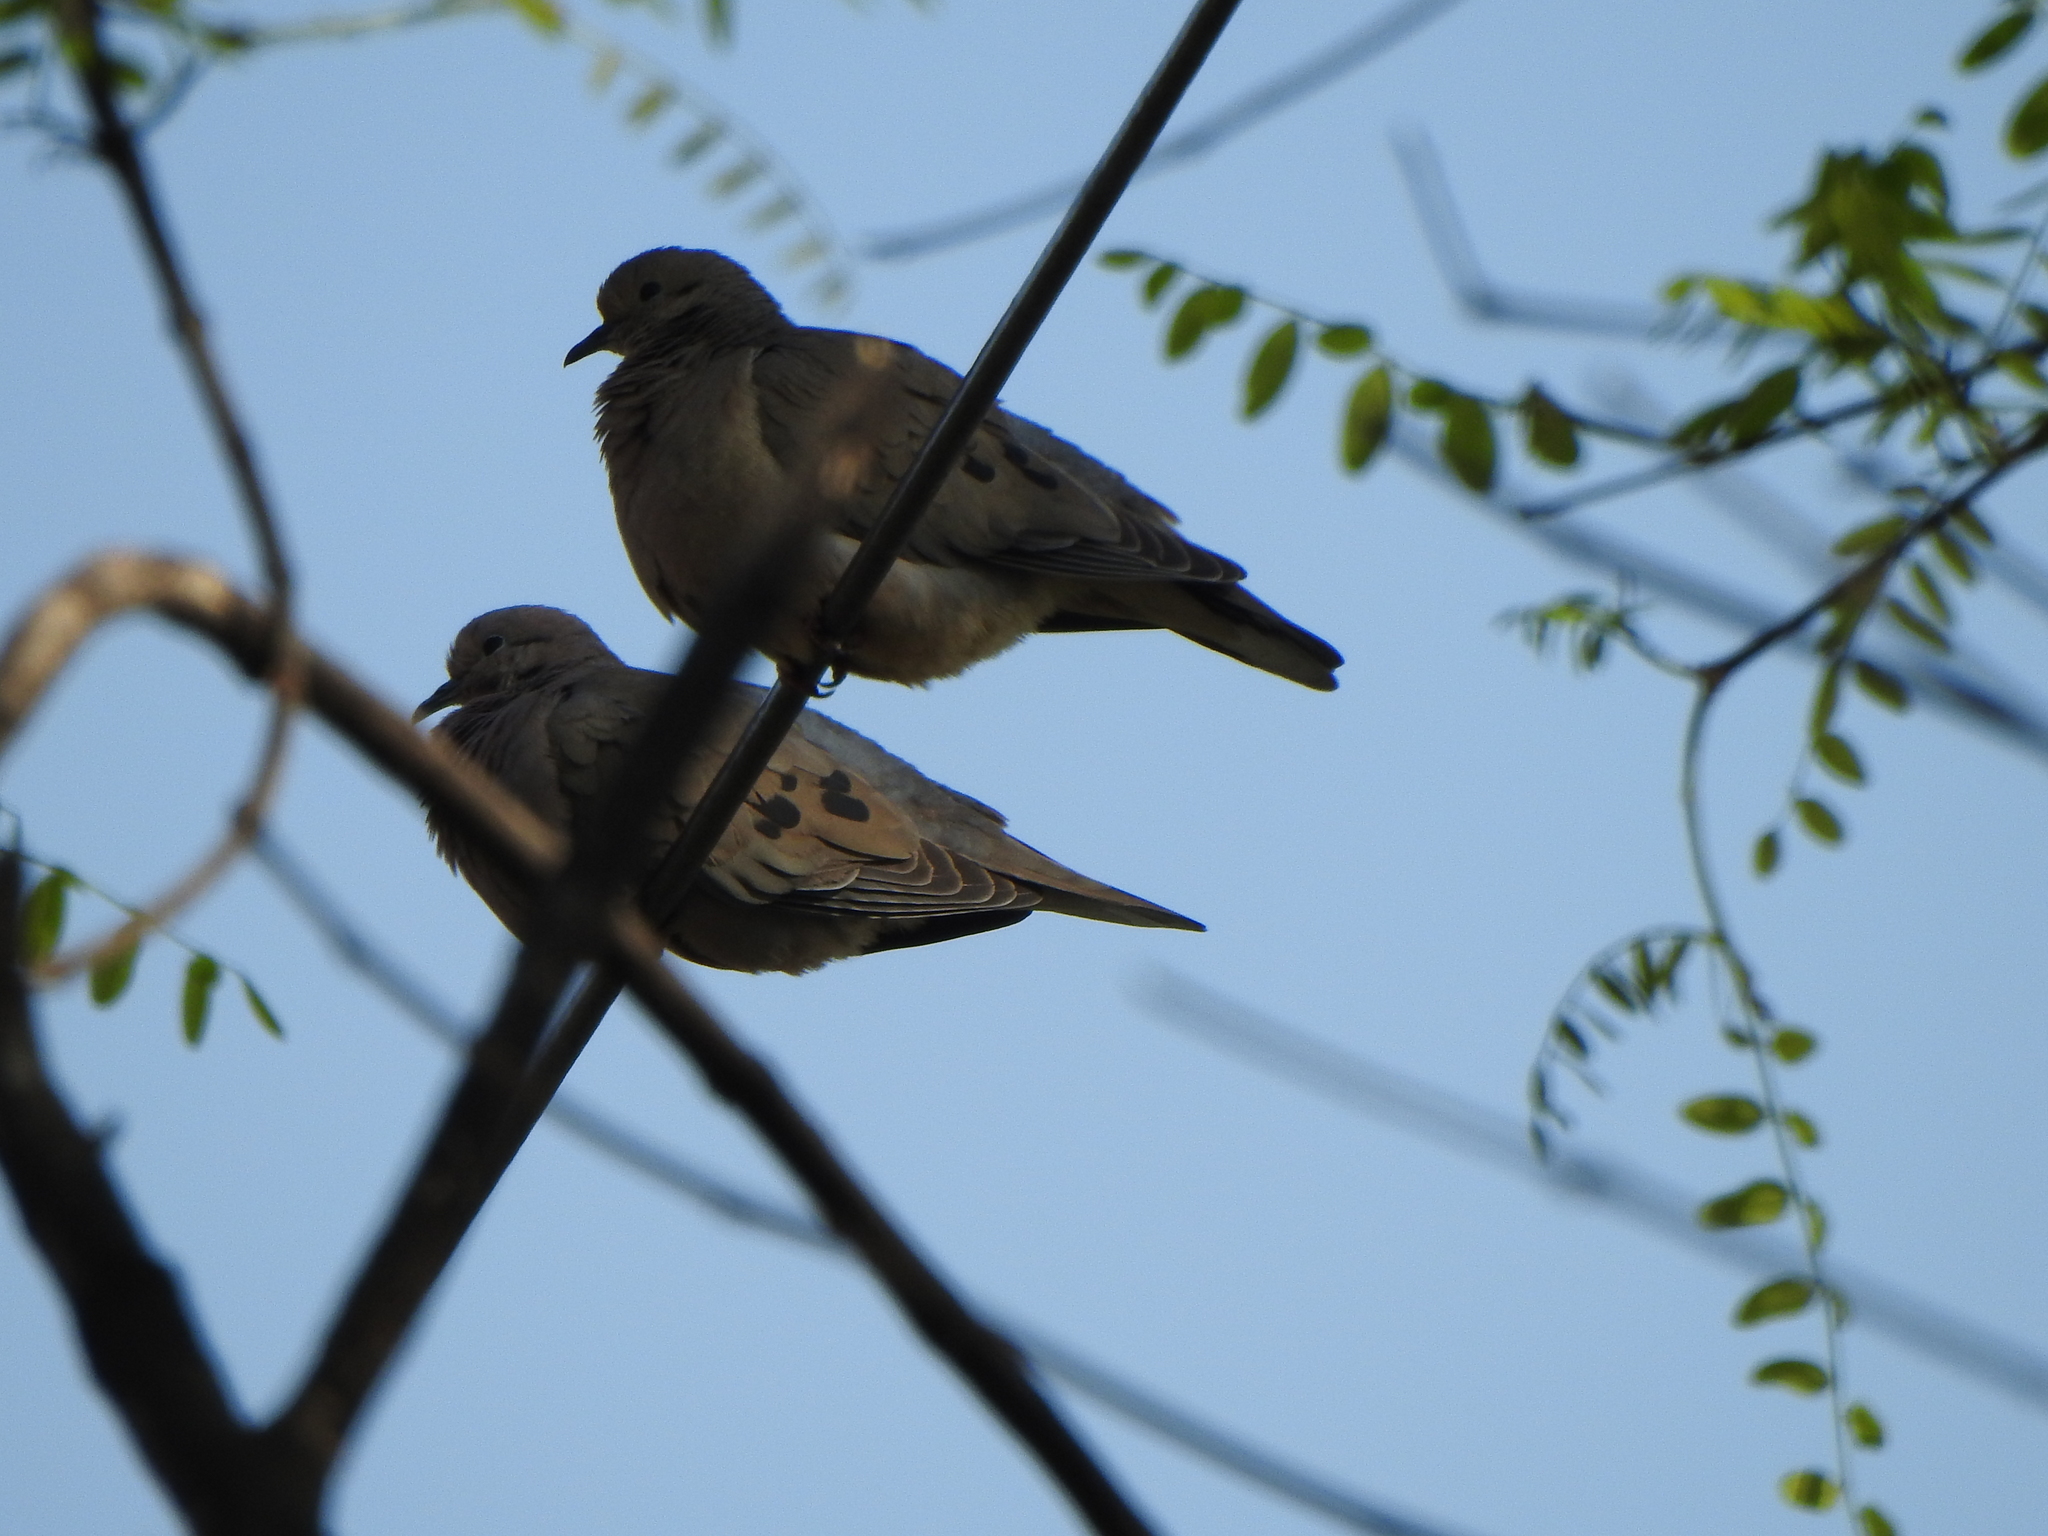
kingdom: Animalia
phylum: Chordata
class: Aves
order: Columbiformes
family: Columbidae
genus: Zenaida
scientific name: Zenaida auriculata
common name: Eared dove
